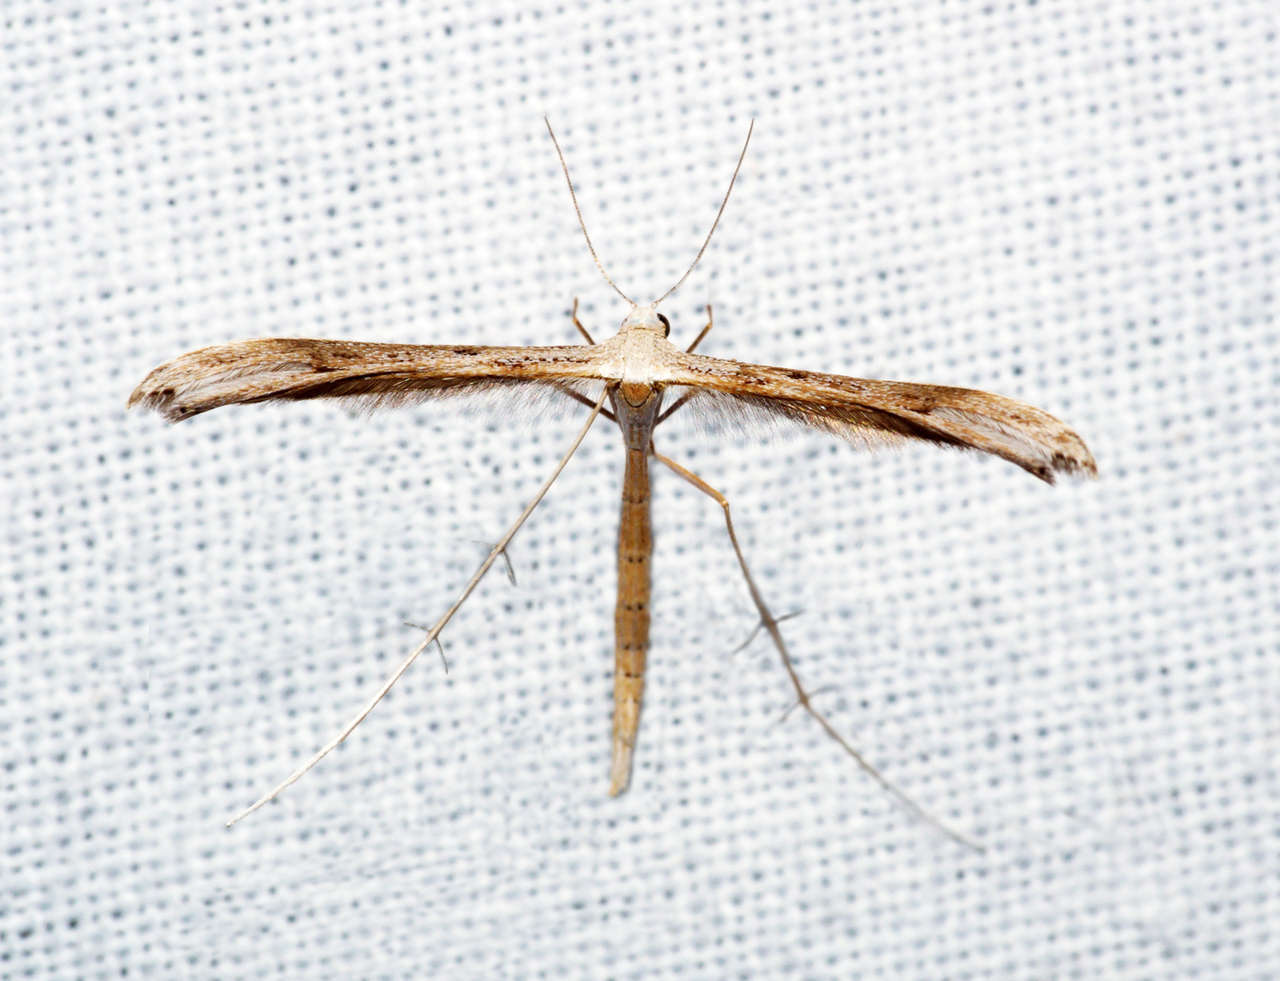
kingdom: Animalia
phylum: Arthropoda
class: Insecta
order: Lepidoptera
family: Pterophoridae
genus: Stenoptilia
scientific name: Stenoptilia zophodactylus
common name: Dowdy plume
